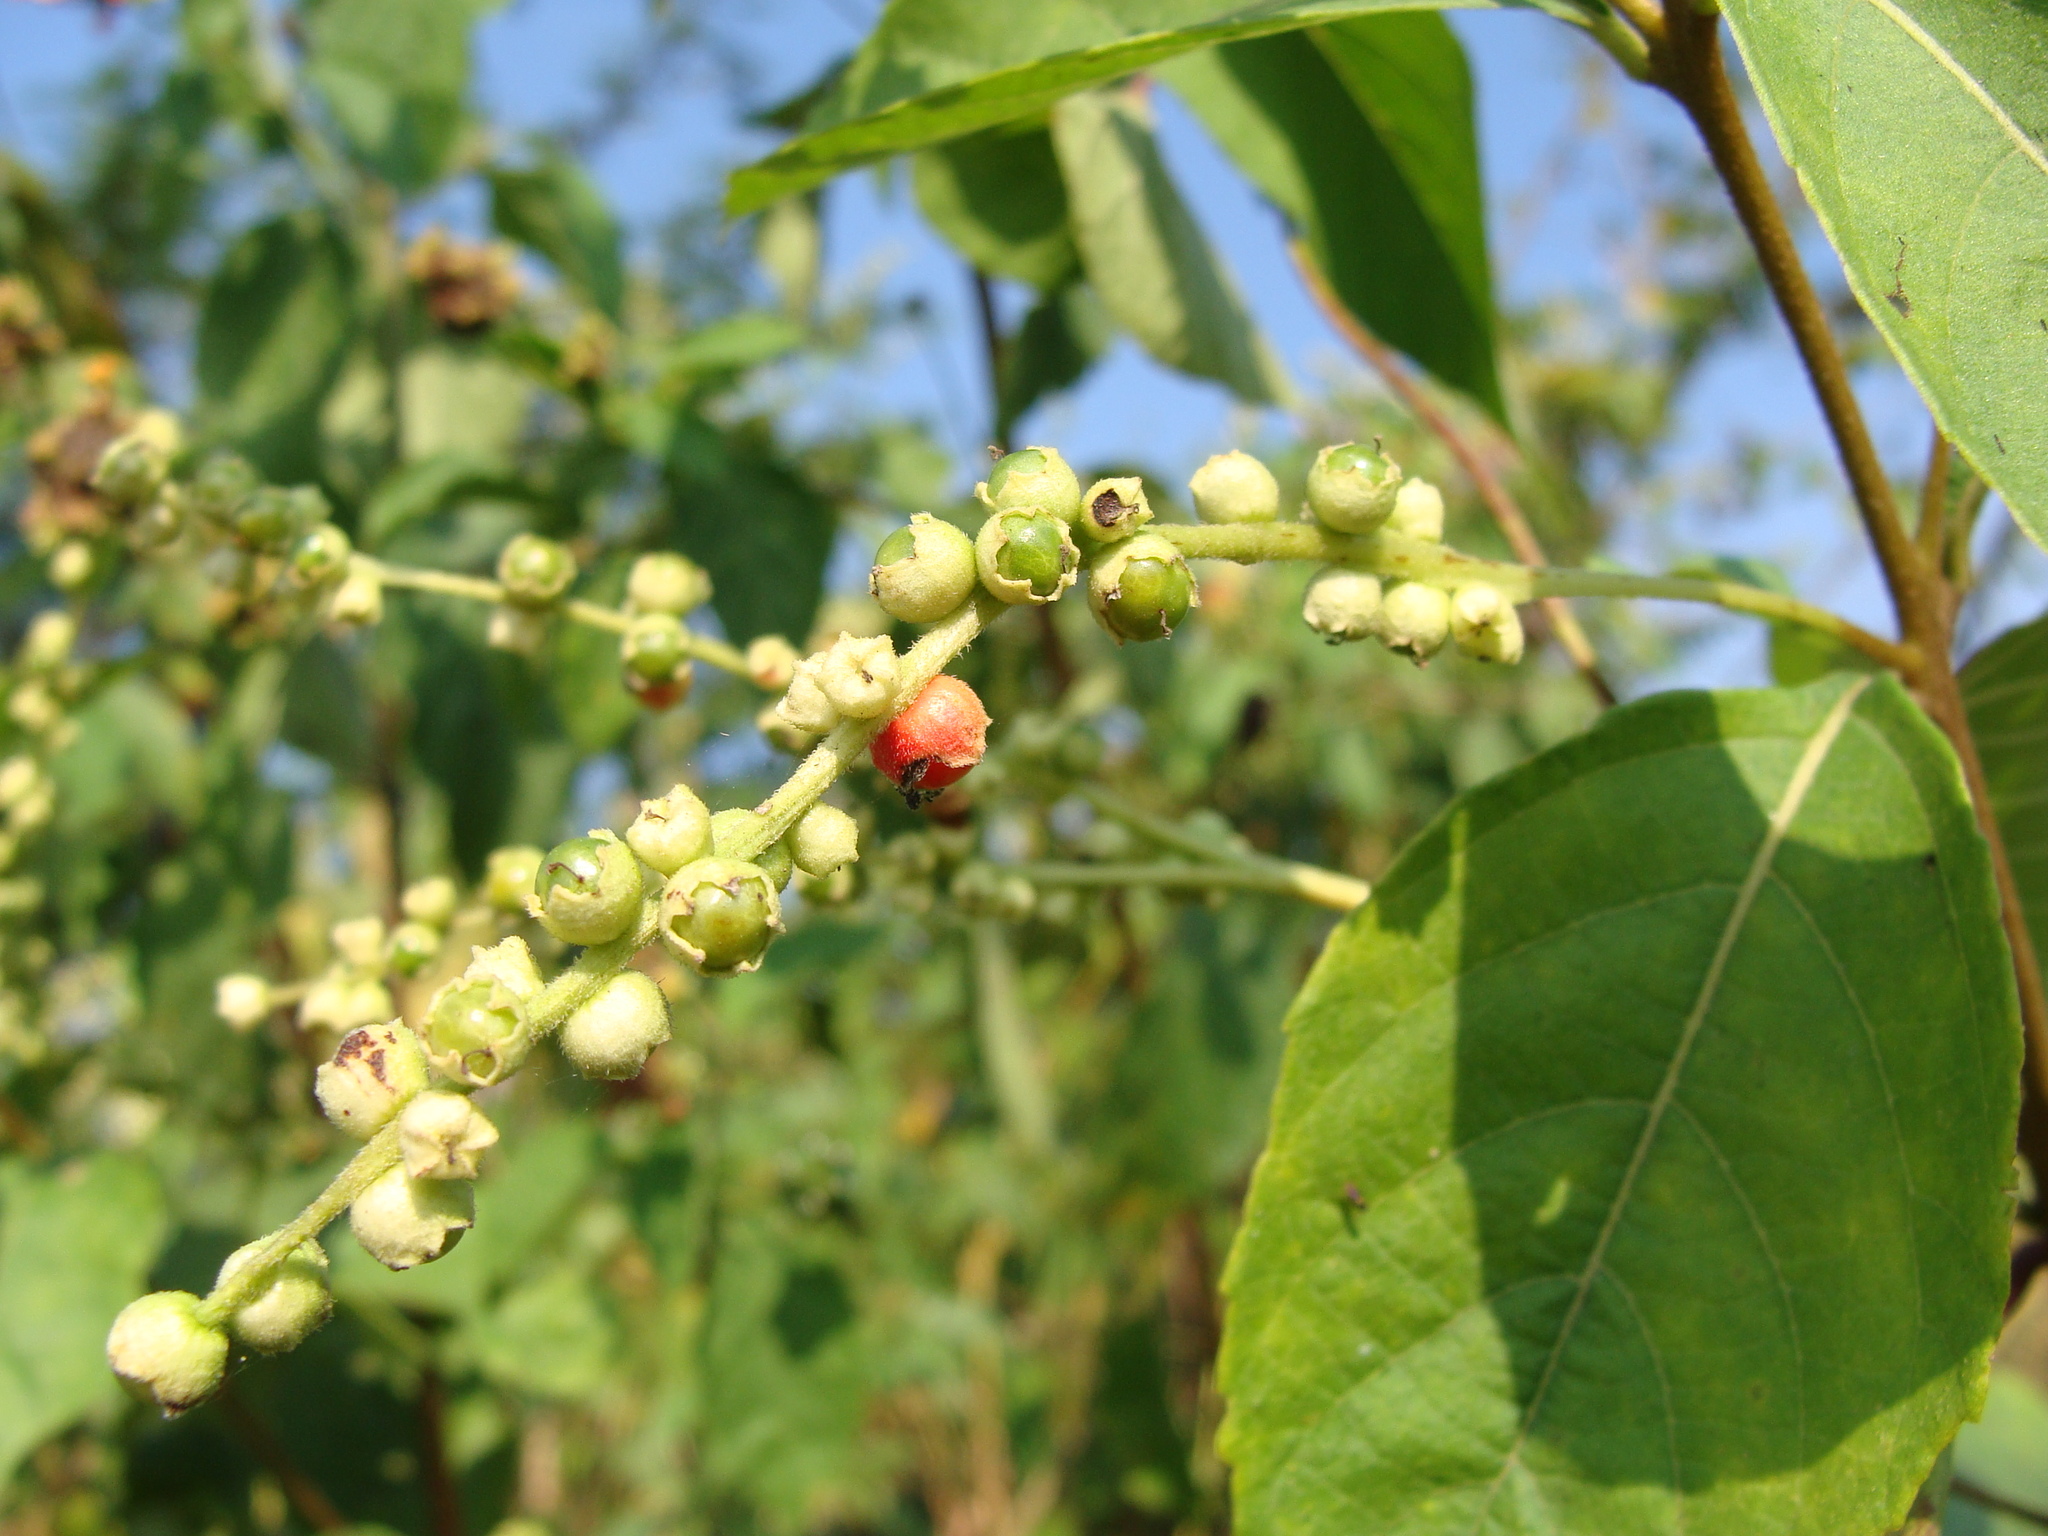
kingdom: Plantae
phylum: Tracheophyta
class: Magnoliopsida
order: Boraginales
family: Cordiaceae
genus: Varronia
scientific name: Varronia curassavica
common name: Black sage
